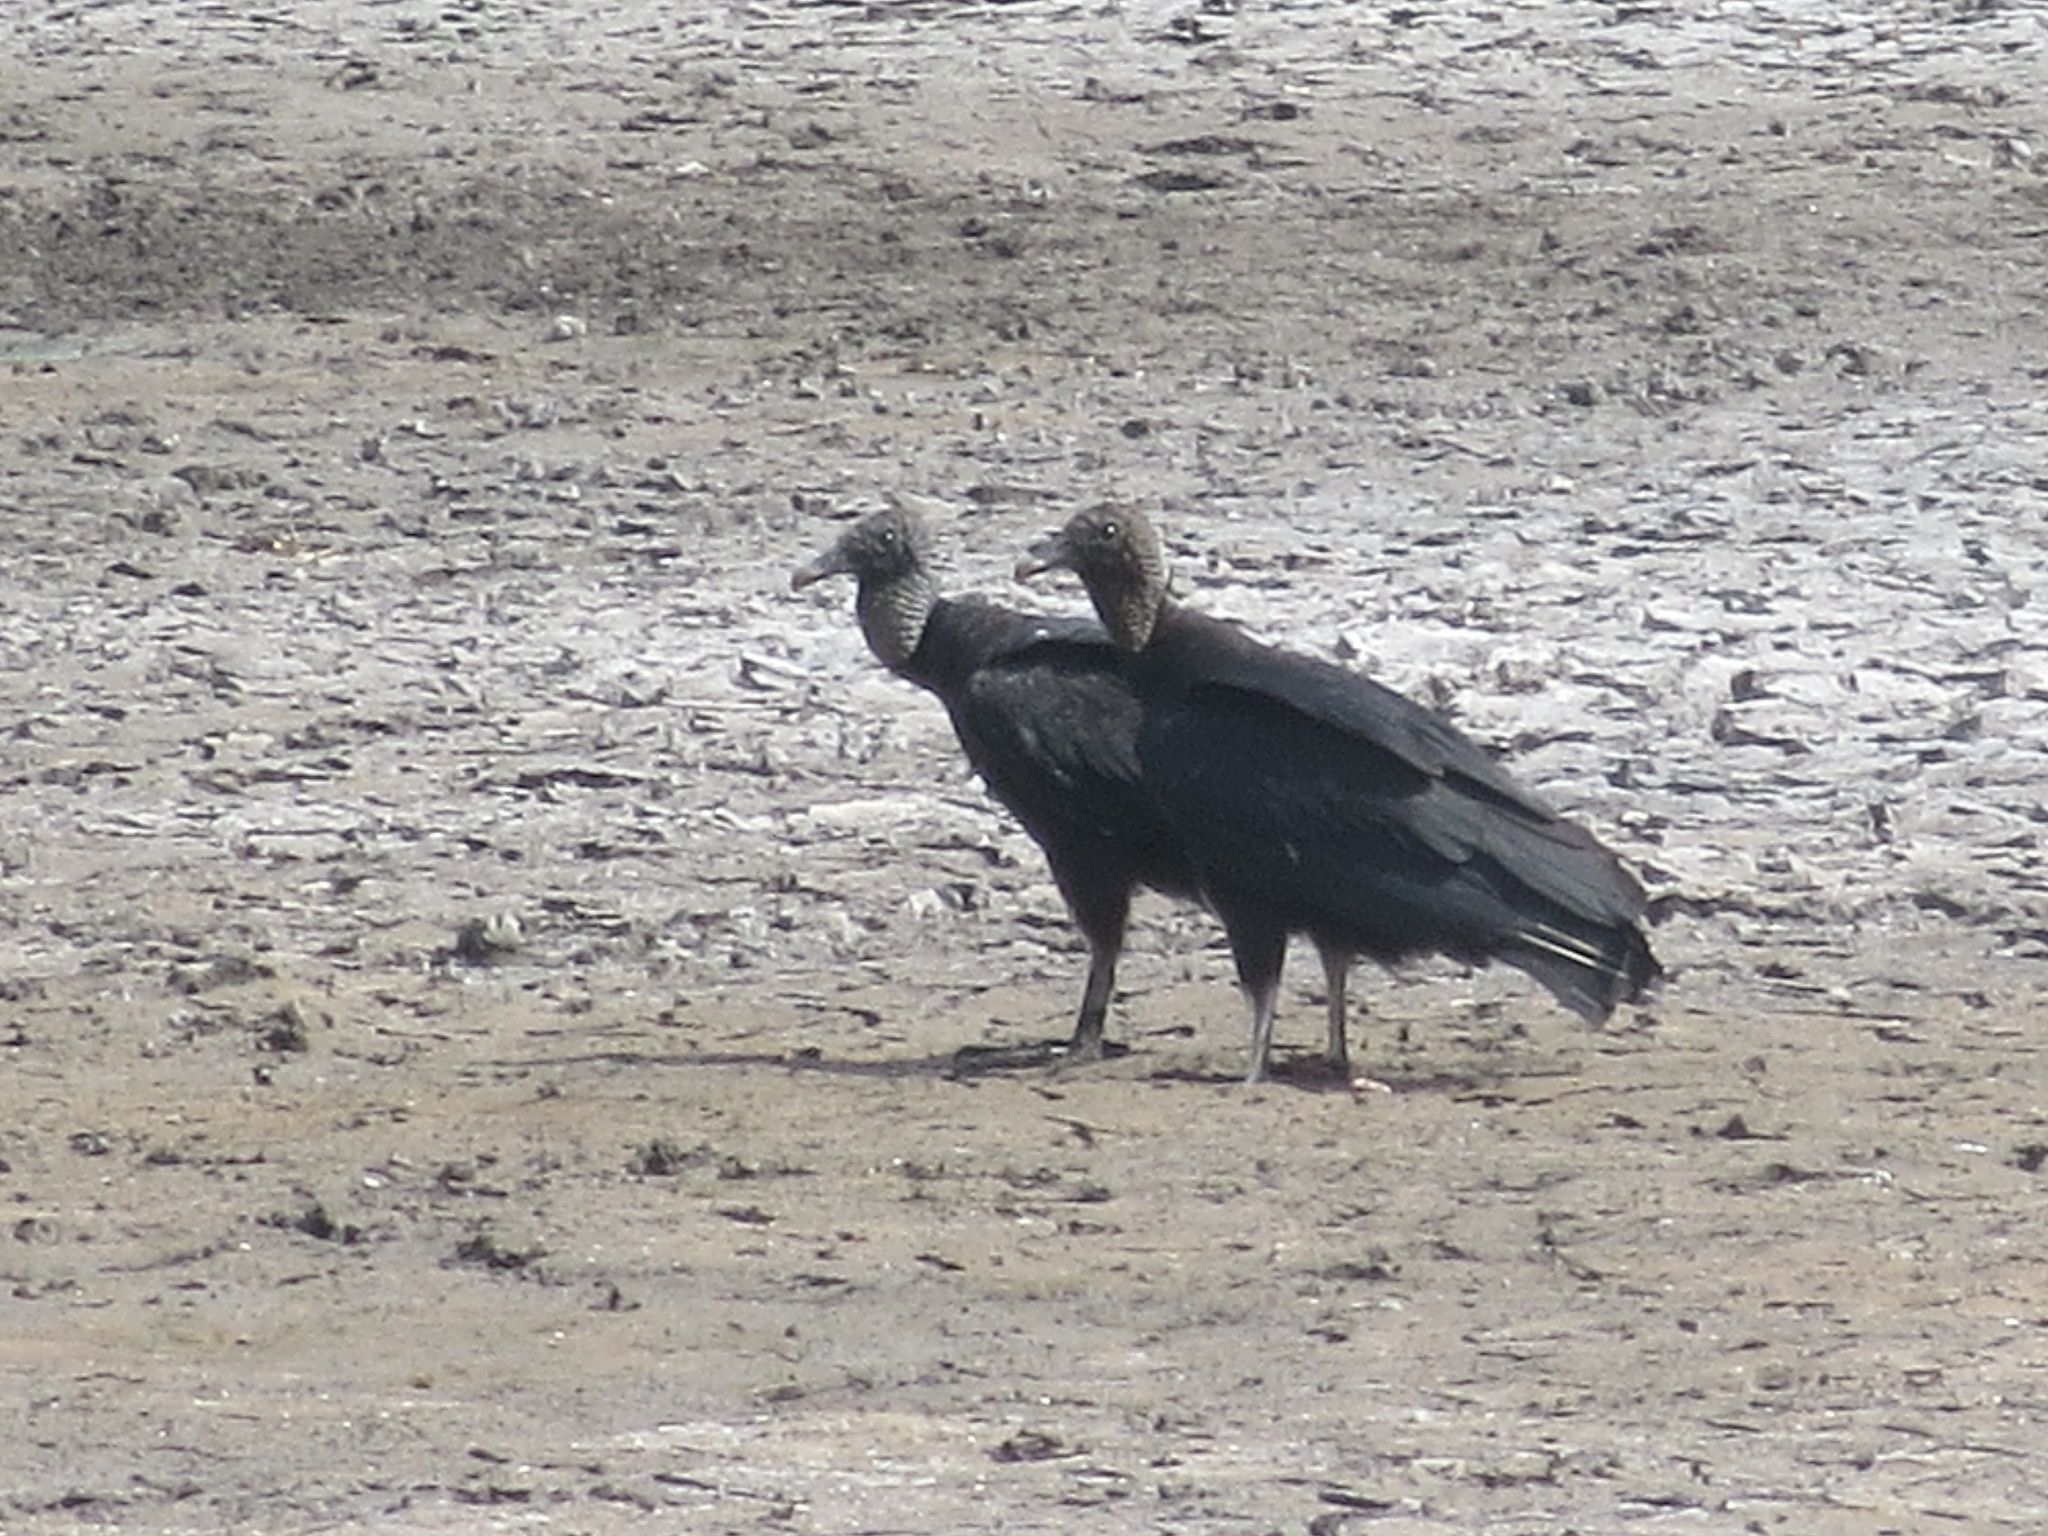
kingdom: Animalia
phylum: Chordata
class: Aves
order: Accipitriformes
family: Cathartidae
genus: Coragyps
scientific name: Coragyps atratus
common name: Black vulture
